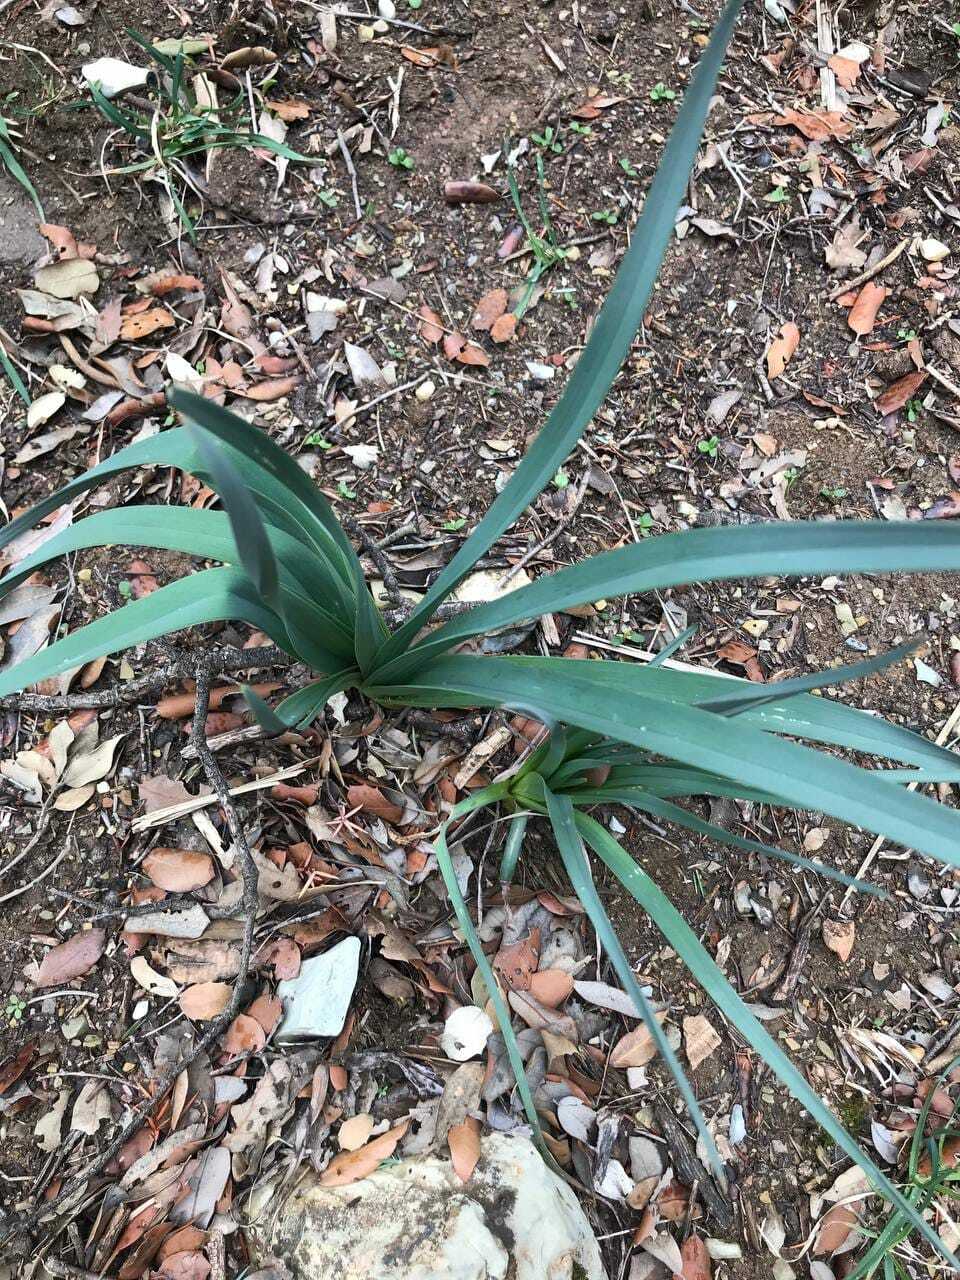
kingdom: Plantae
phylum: Tracheophyta
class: Liliopsida
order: Asparagales
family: Asphodelaceae
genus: Asphodelus
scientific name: Asphodelus ramosus
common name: Silverrod
